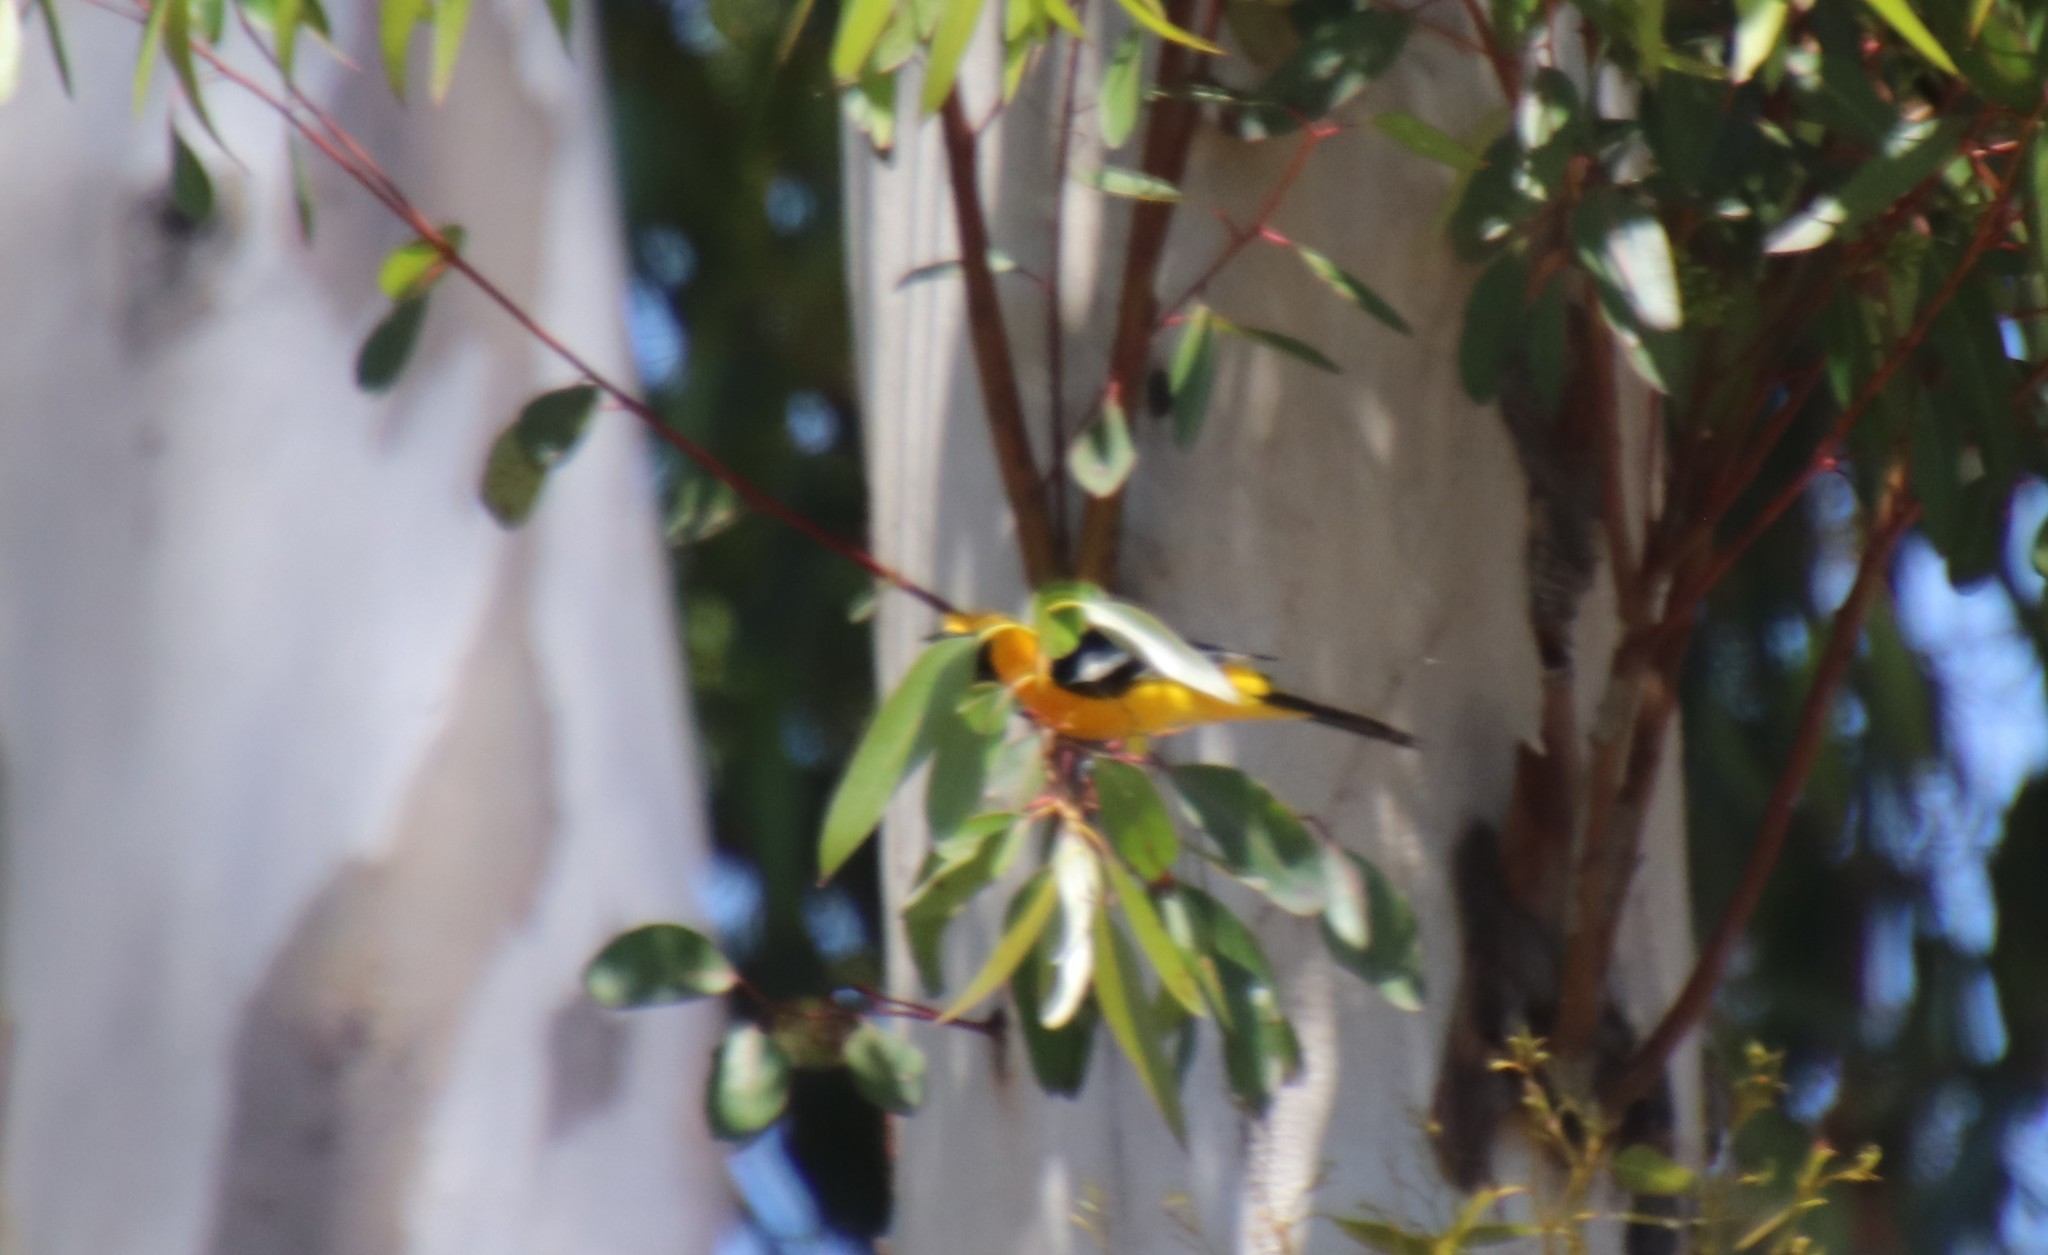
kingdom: Animalia
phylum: Chordata
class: Aves
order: Passeriformes
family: Icteridae
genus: Icterus
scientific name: Icterus cucullatus
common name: Hooded oriole
